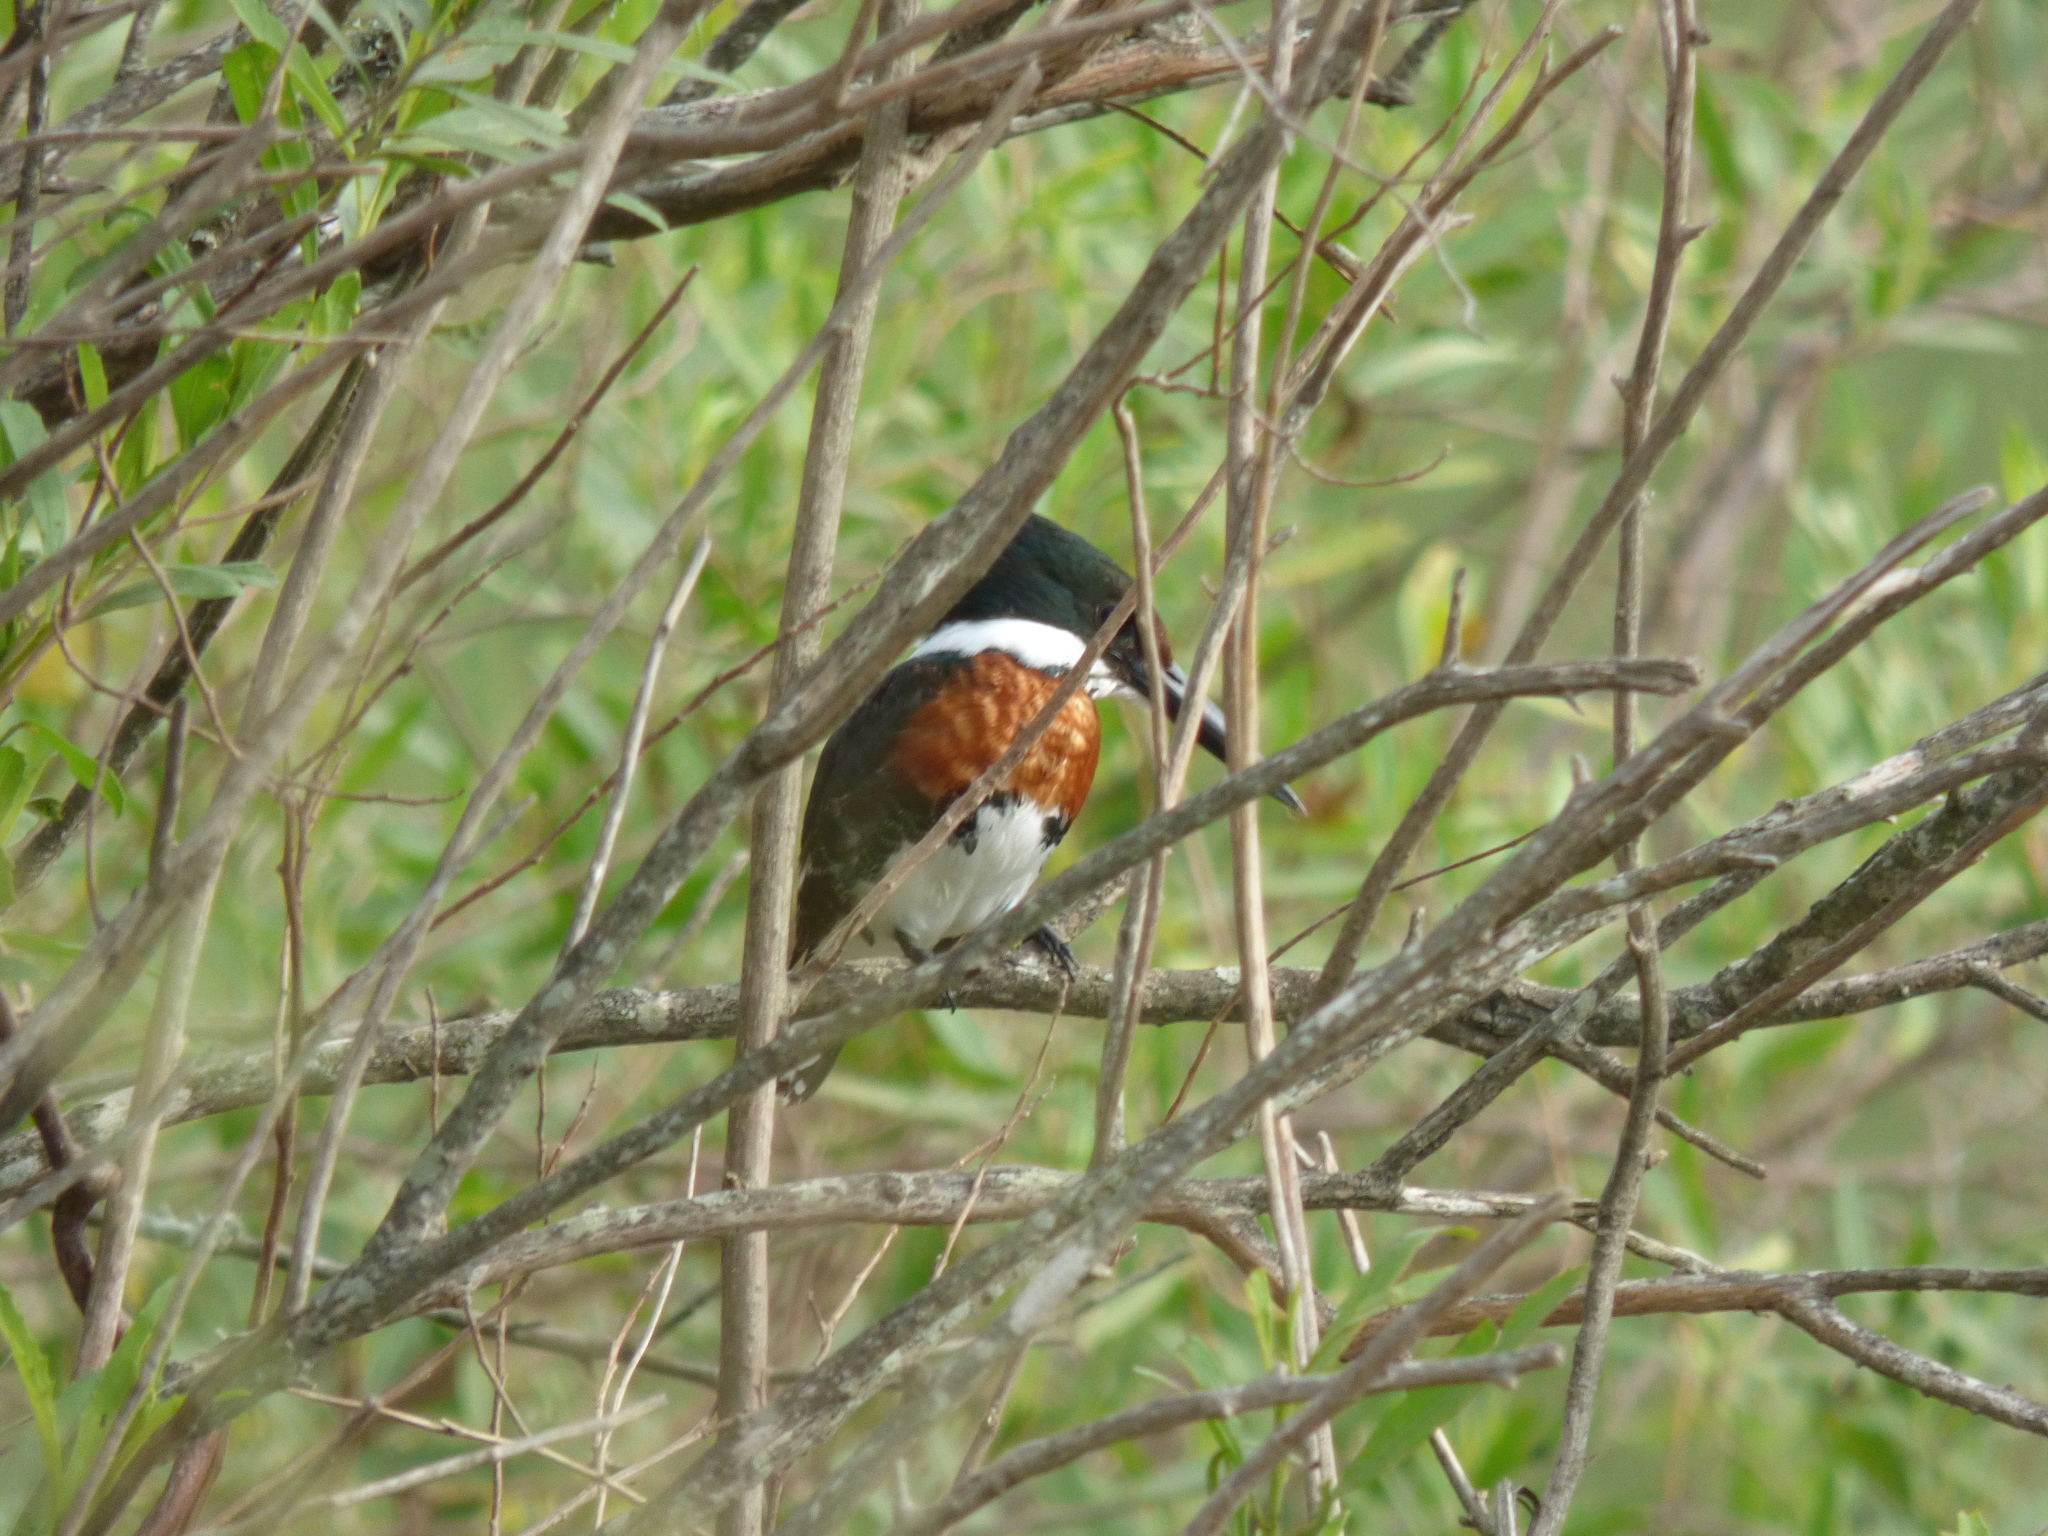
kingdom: Animalia
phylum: Chordata
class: Aves
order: Coraciiformes
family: Alcedinidae
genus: Chloroceryle
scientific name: Chloroceryle americana
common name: Green kingfisher
